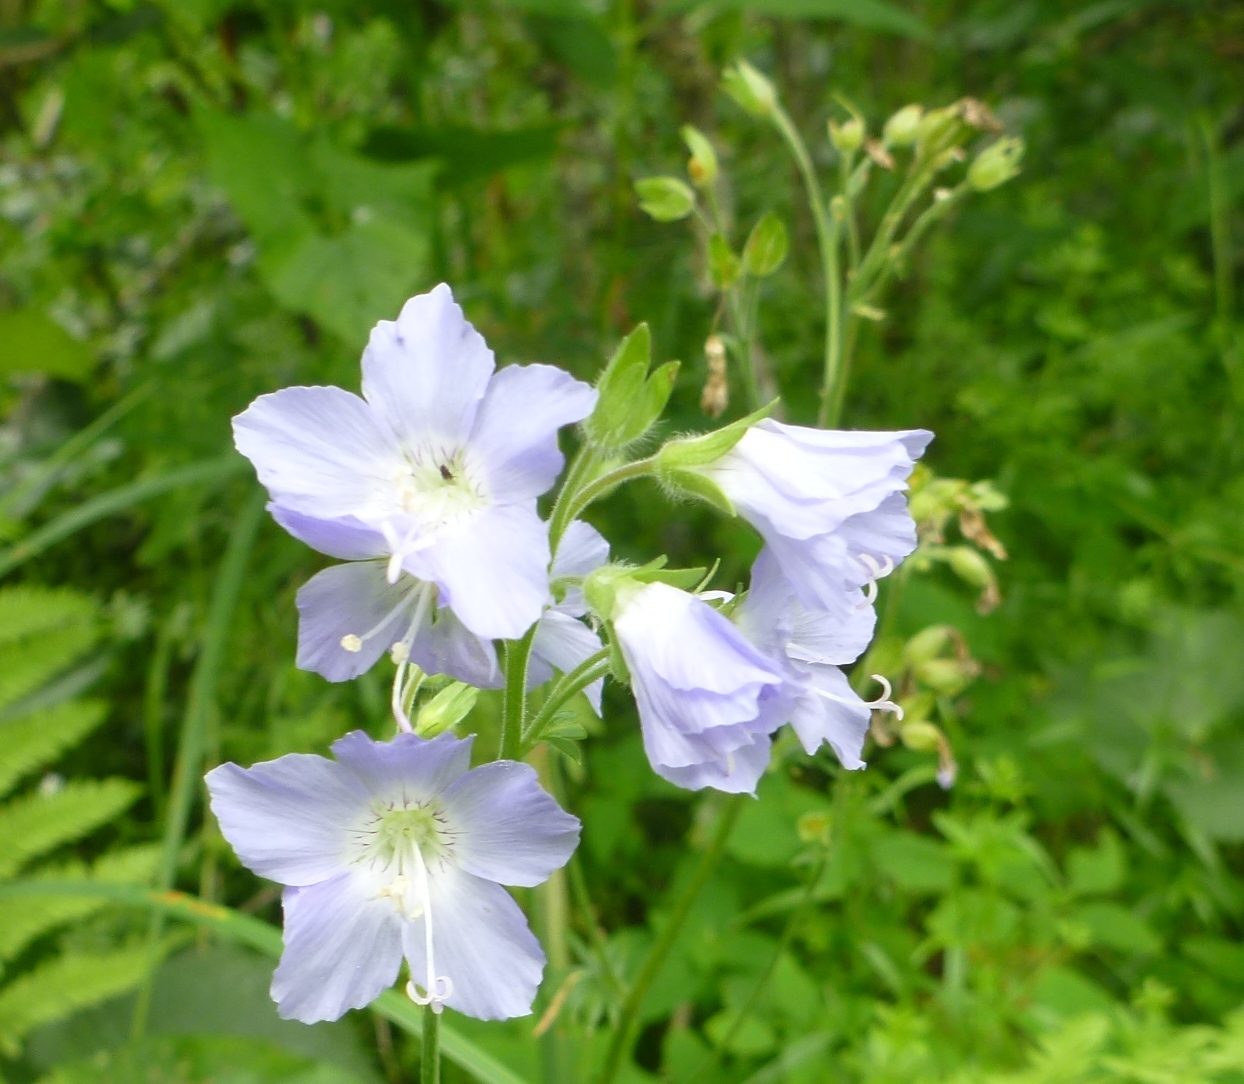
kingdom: Plantae
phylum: Tracheophyta
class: Magnoliopsida
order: Ericales
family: Polemoniaceae
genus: Polemonium
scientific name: Polemonium occidentale
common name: Western jacob's-ladder
